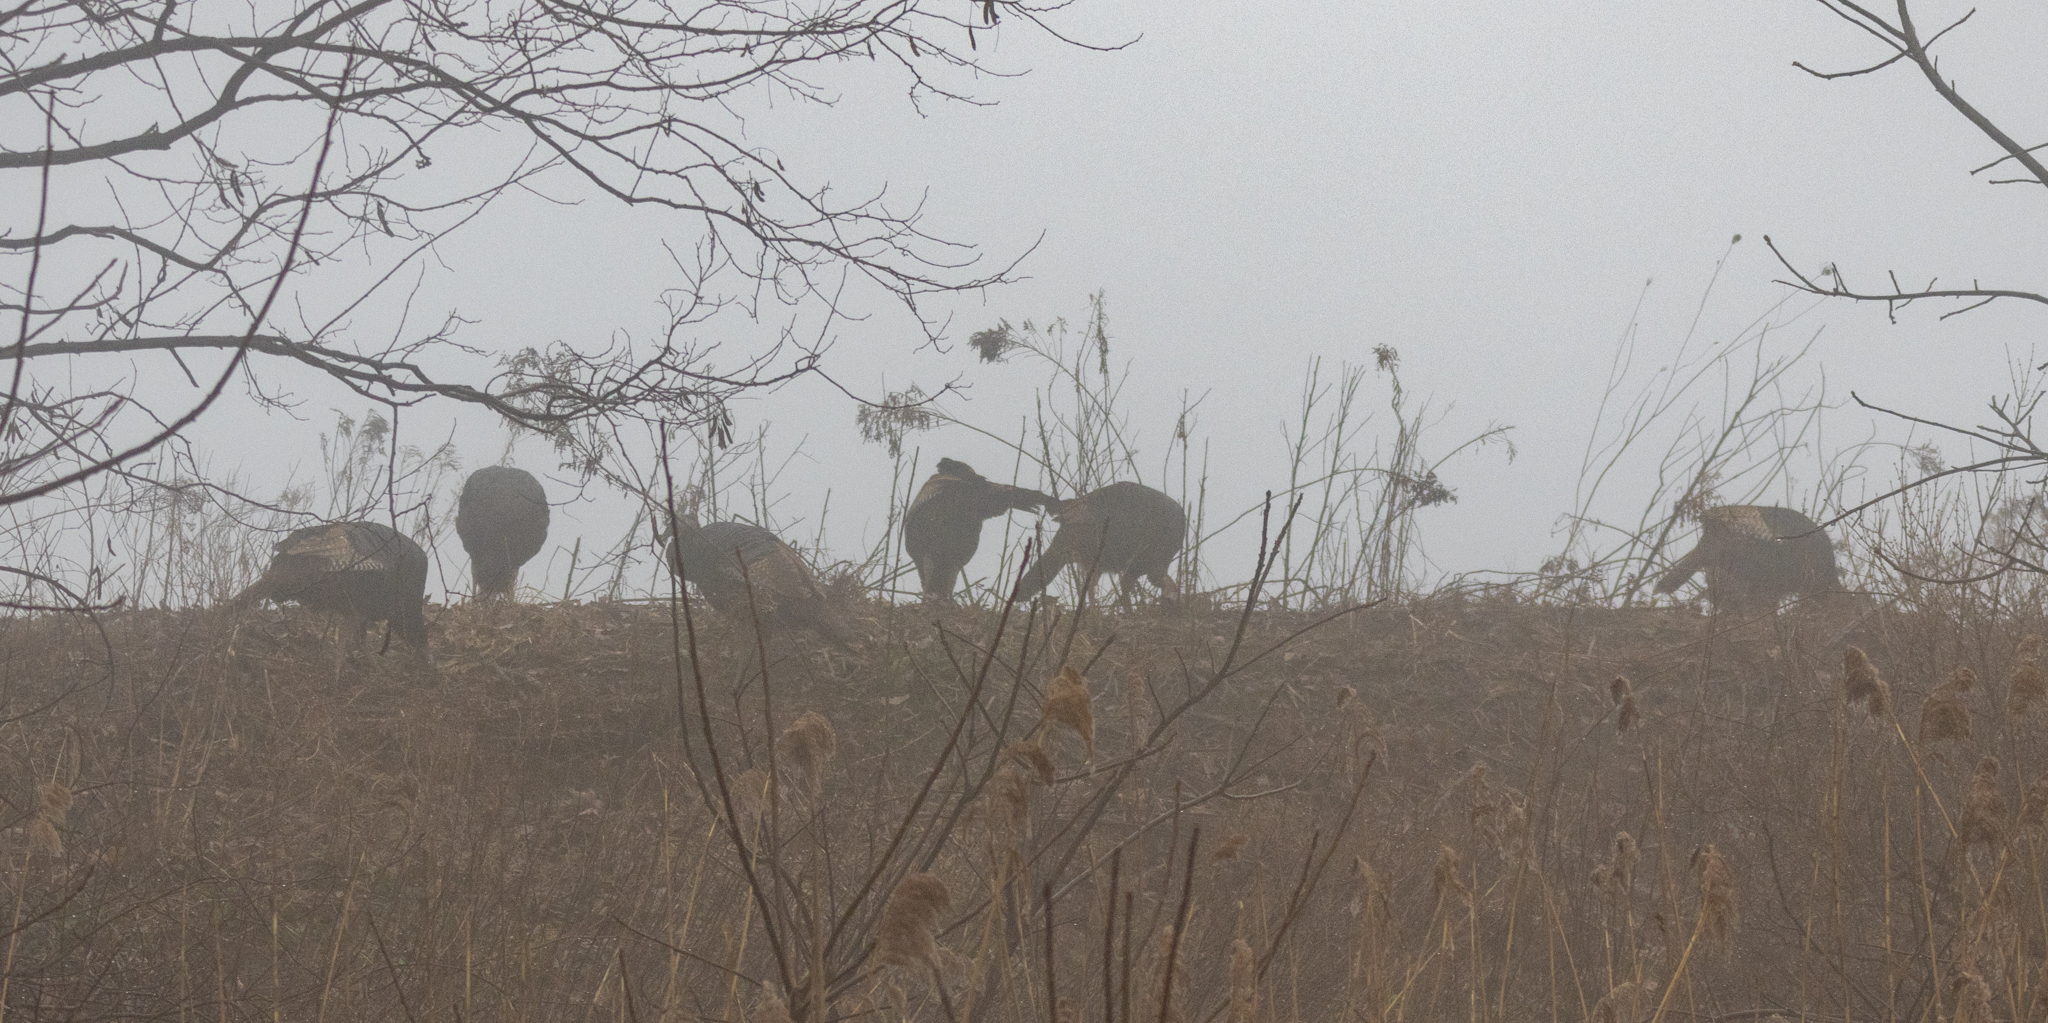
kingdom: Animalia
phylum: Chordata
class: Aves
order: Galliformes
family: Phasianidae
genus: Meleagris
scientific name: Meleagris gallopavo
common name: Wild turkey
